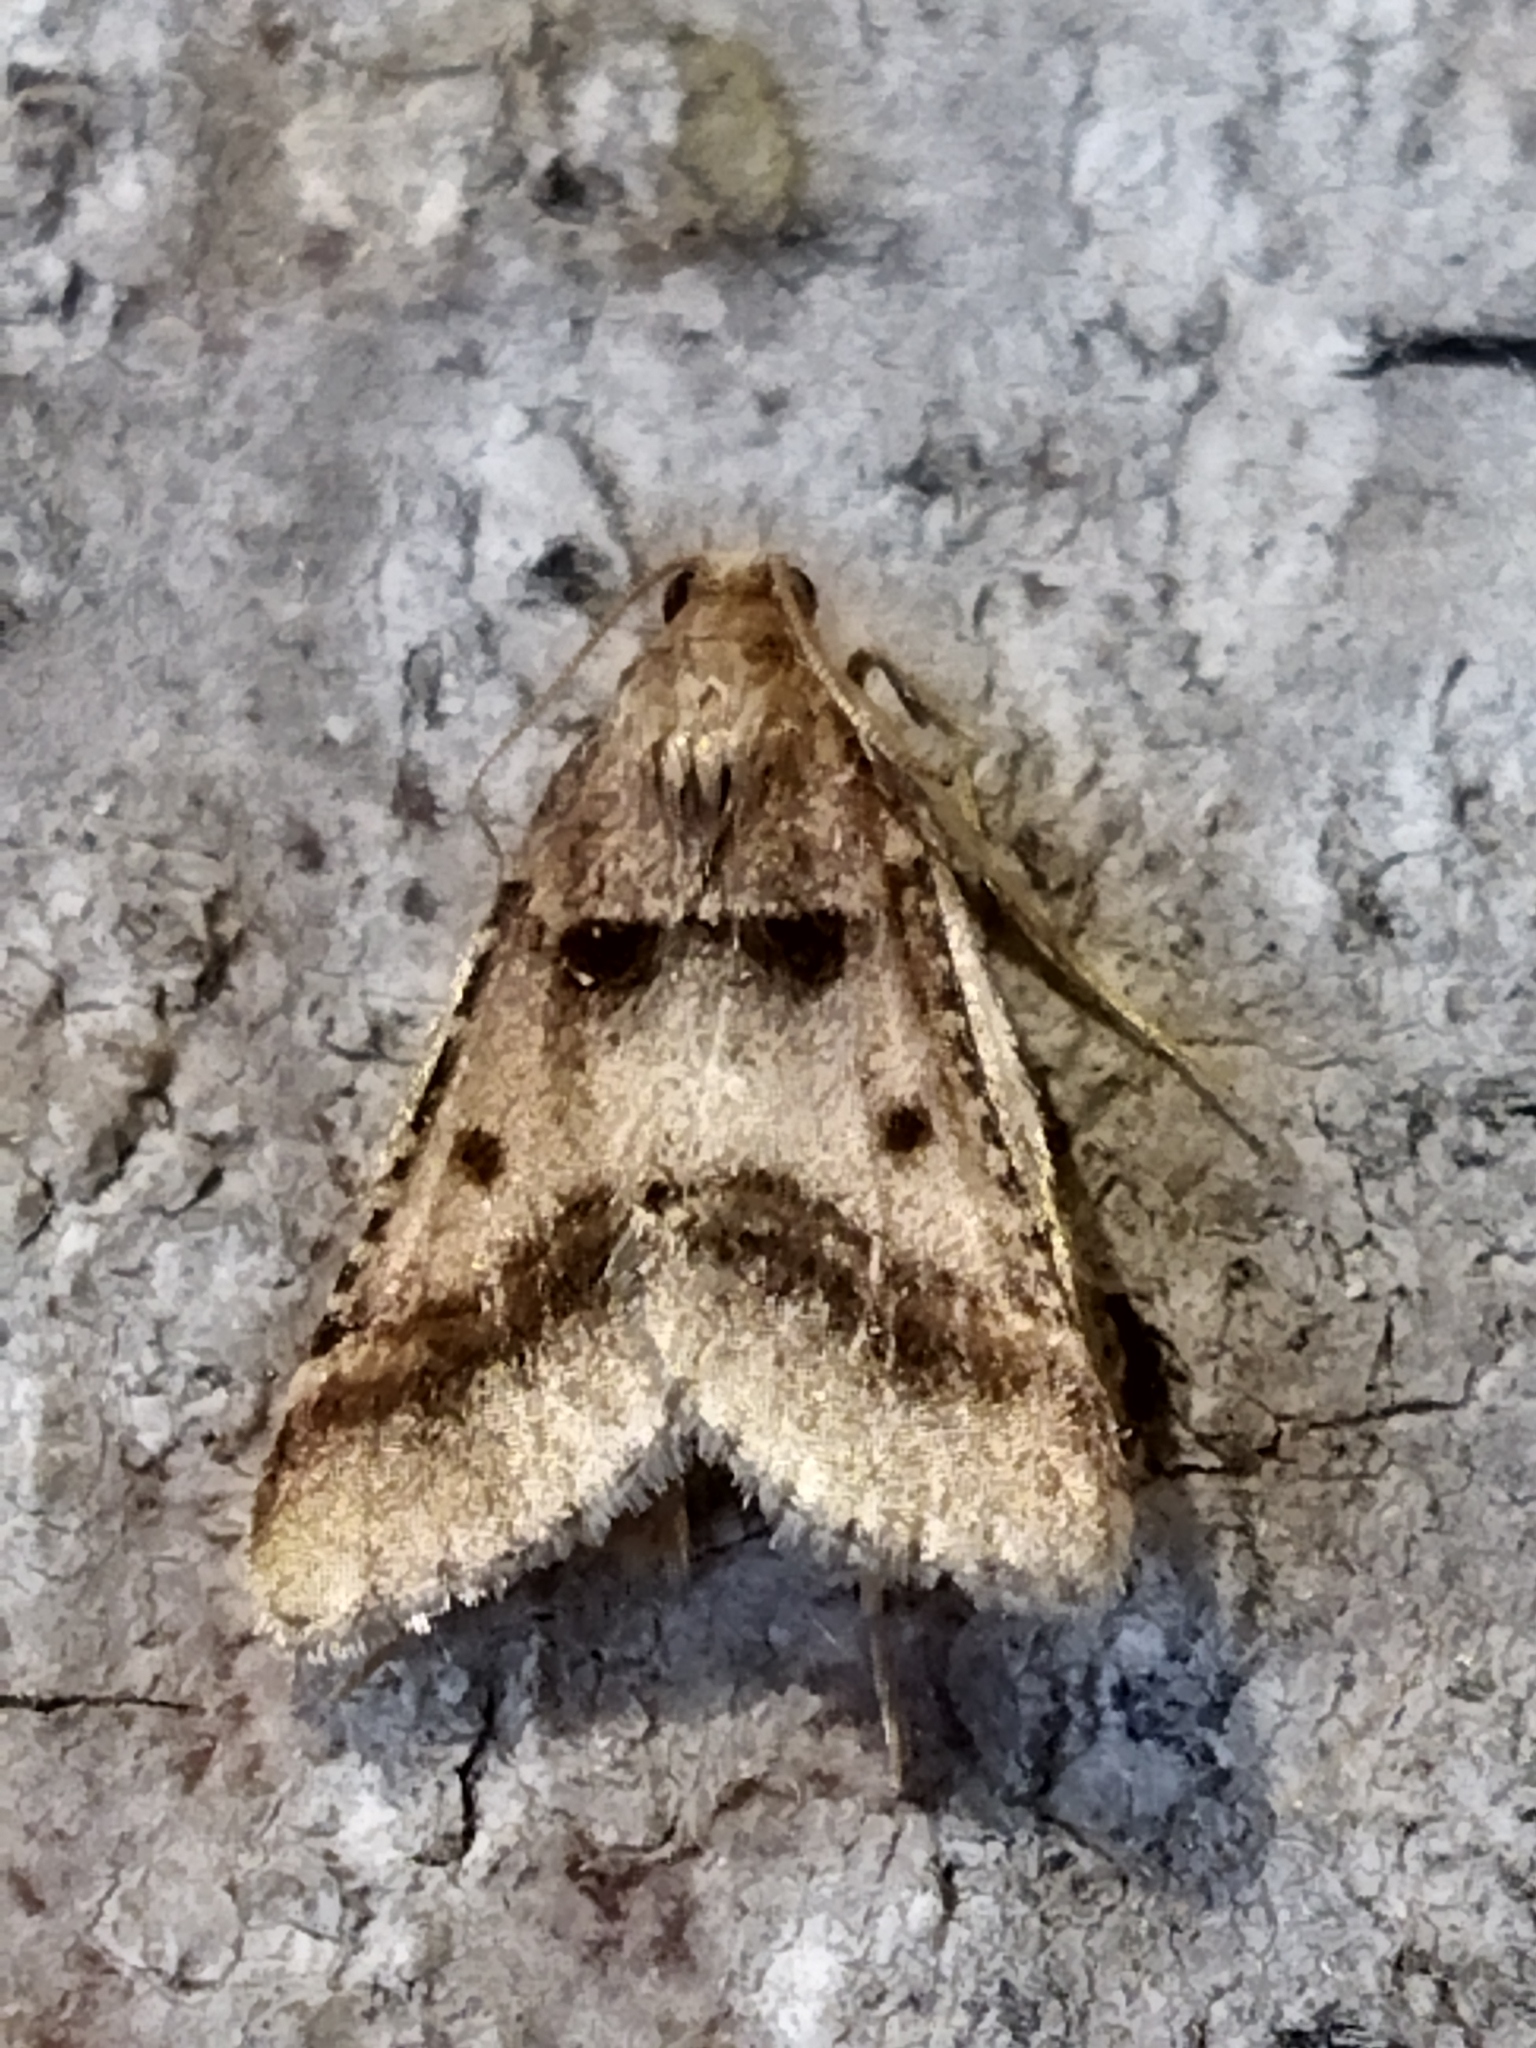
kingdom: Animalia
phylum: Arthropoda
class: Insecta
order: Lepidoptera
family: Pyralidae
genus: Stemmatophora
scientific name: Stemmatophora brunnealis
